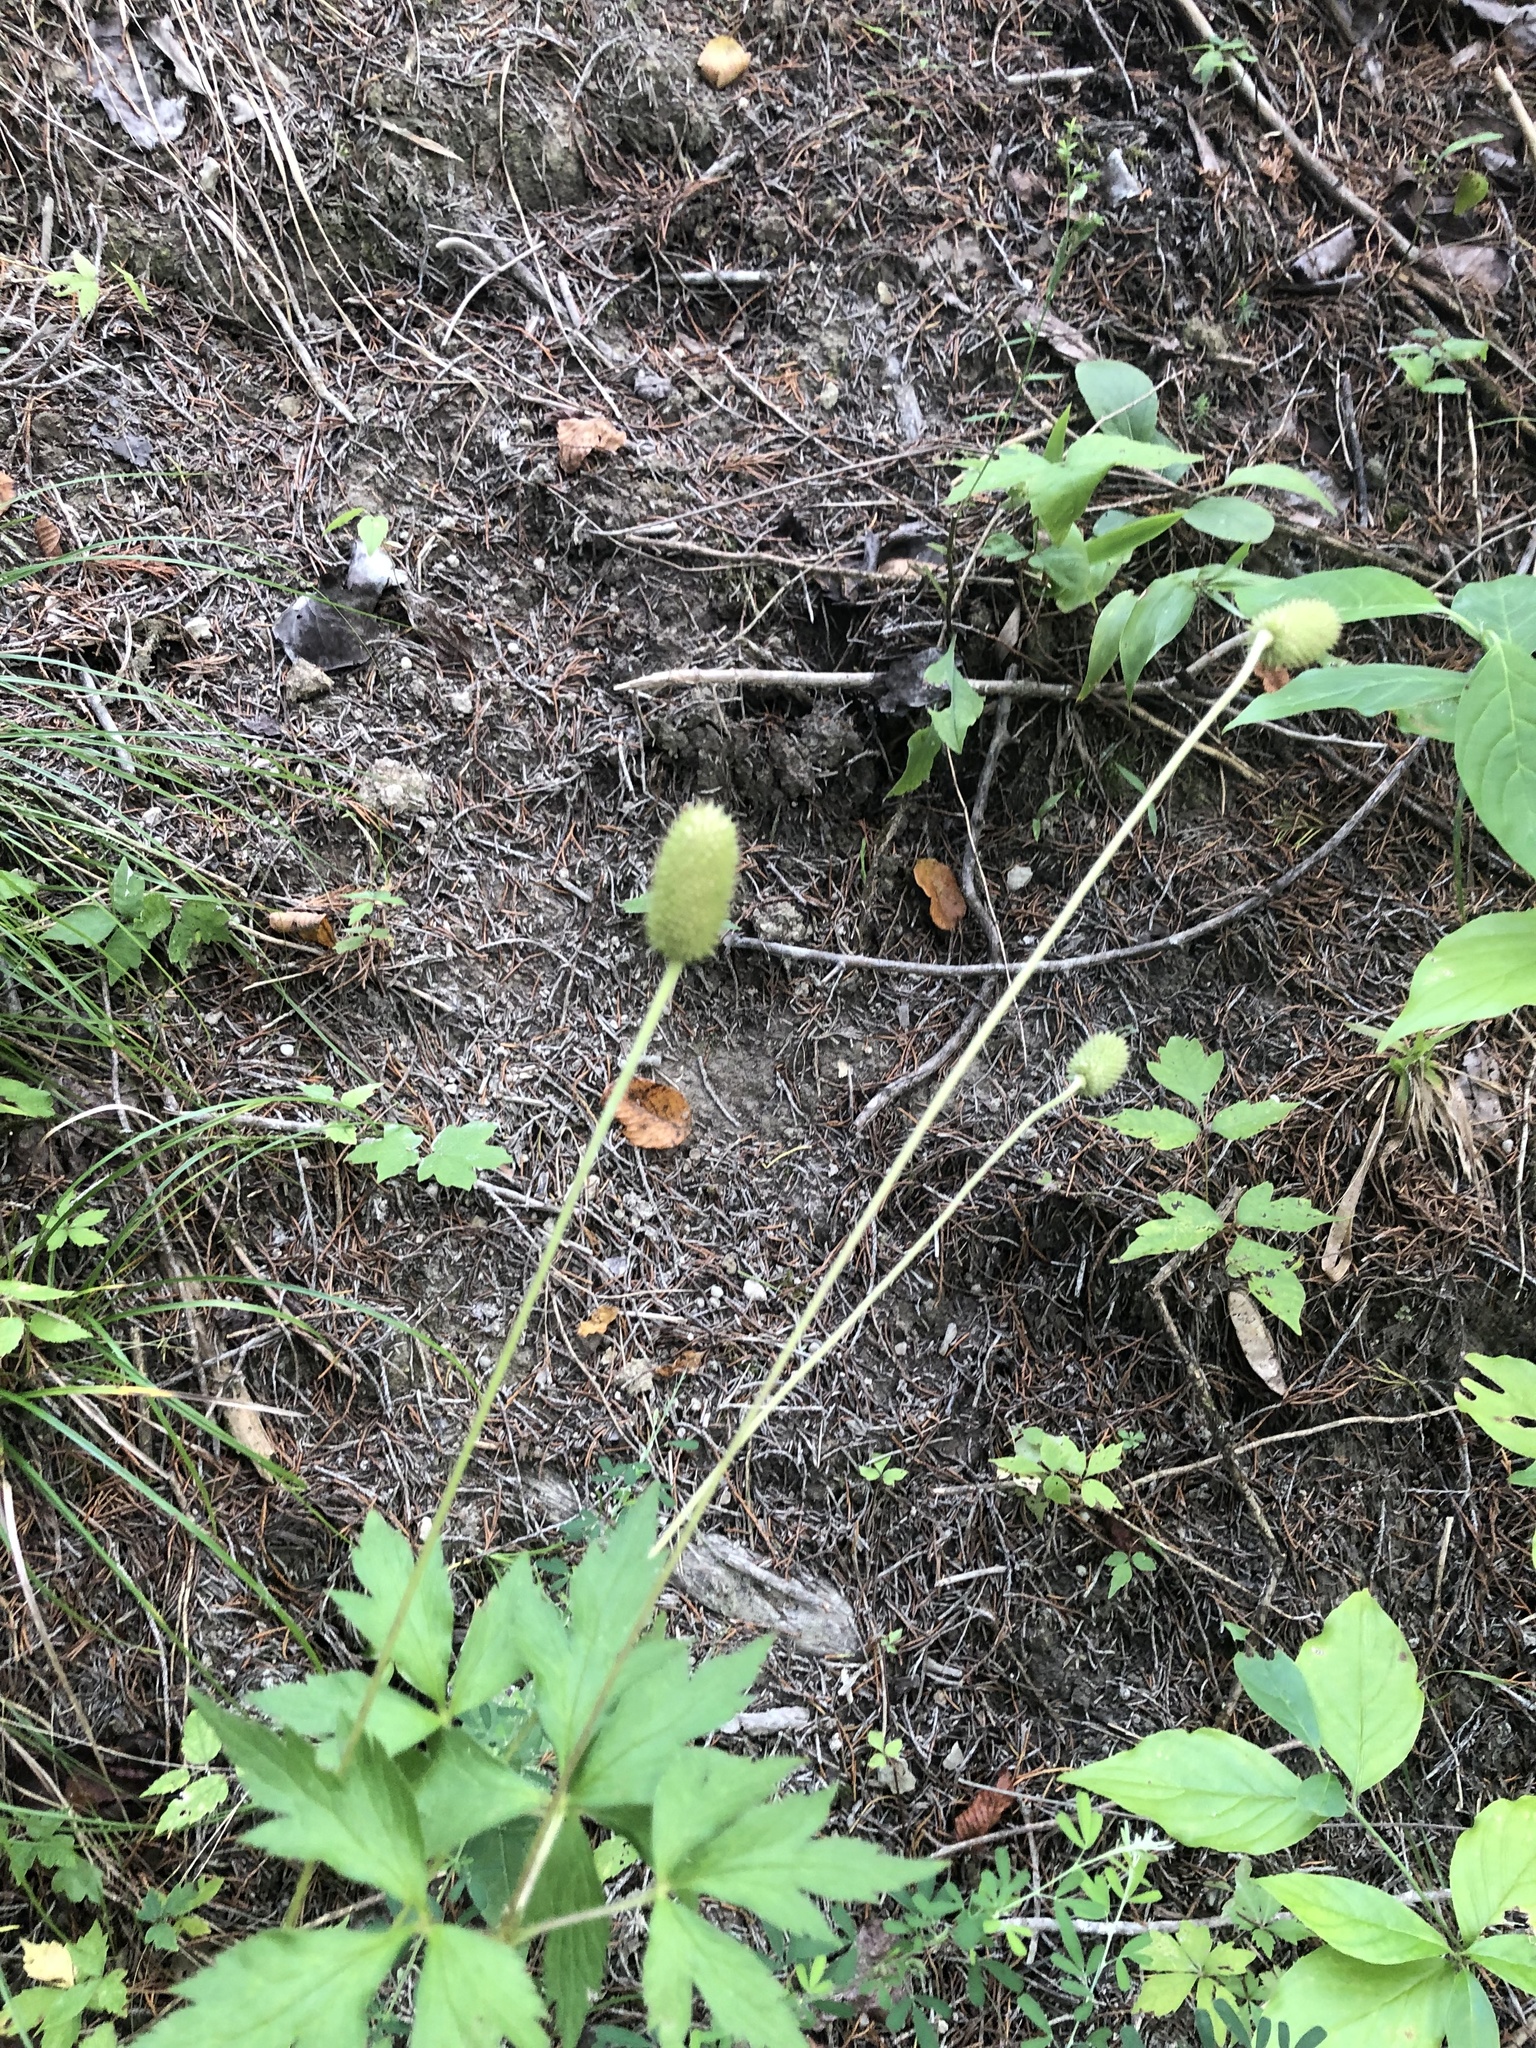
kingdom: Plantae
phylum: Tracheophyta
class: Magnoliopsida
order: Ranunculales
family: Ranunculaceae
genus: Anemone
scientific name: Anemone virginiana
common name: Tall anemone
